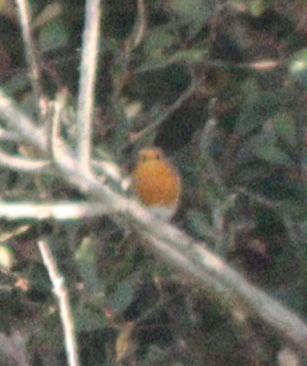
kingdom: Animalia
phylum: Chordata
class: Aves
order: Passeriformes
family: Muscicapidae
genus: Erithacus
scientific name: Erithacus rubecula
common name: European robin
